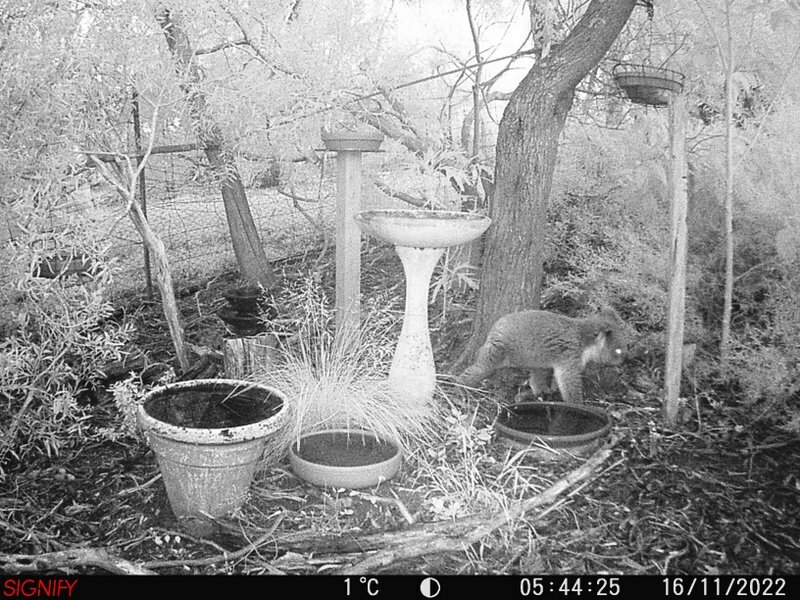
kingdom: Animalia
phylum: Chordata
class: Mammalia
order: Diprotodontia
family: Phascolarctidae
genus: Phascolarctos
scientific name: Phascolarctos cinereus
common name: Koala
